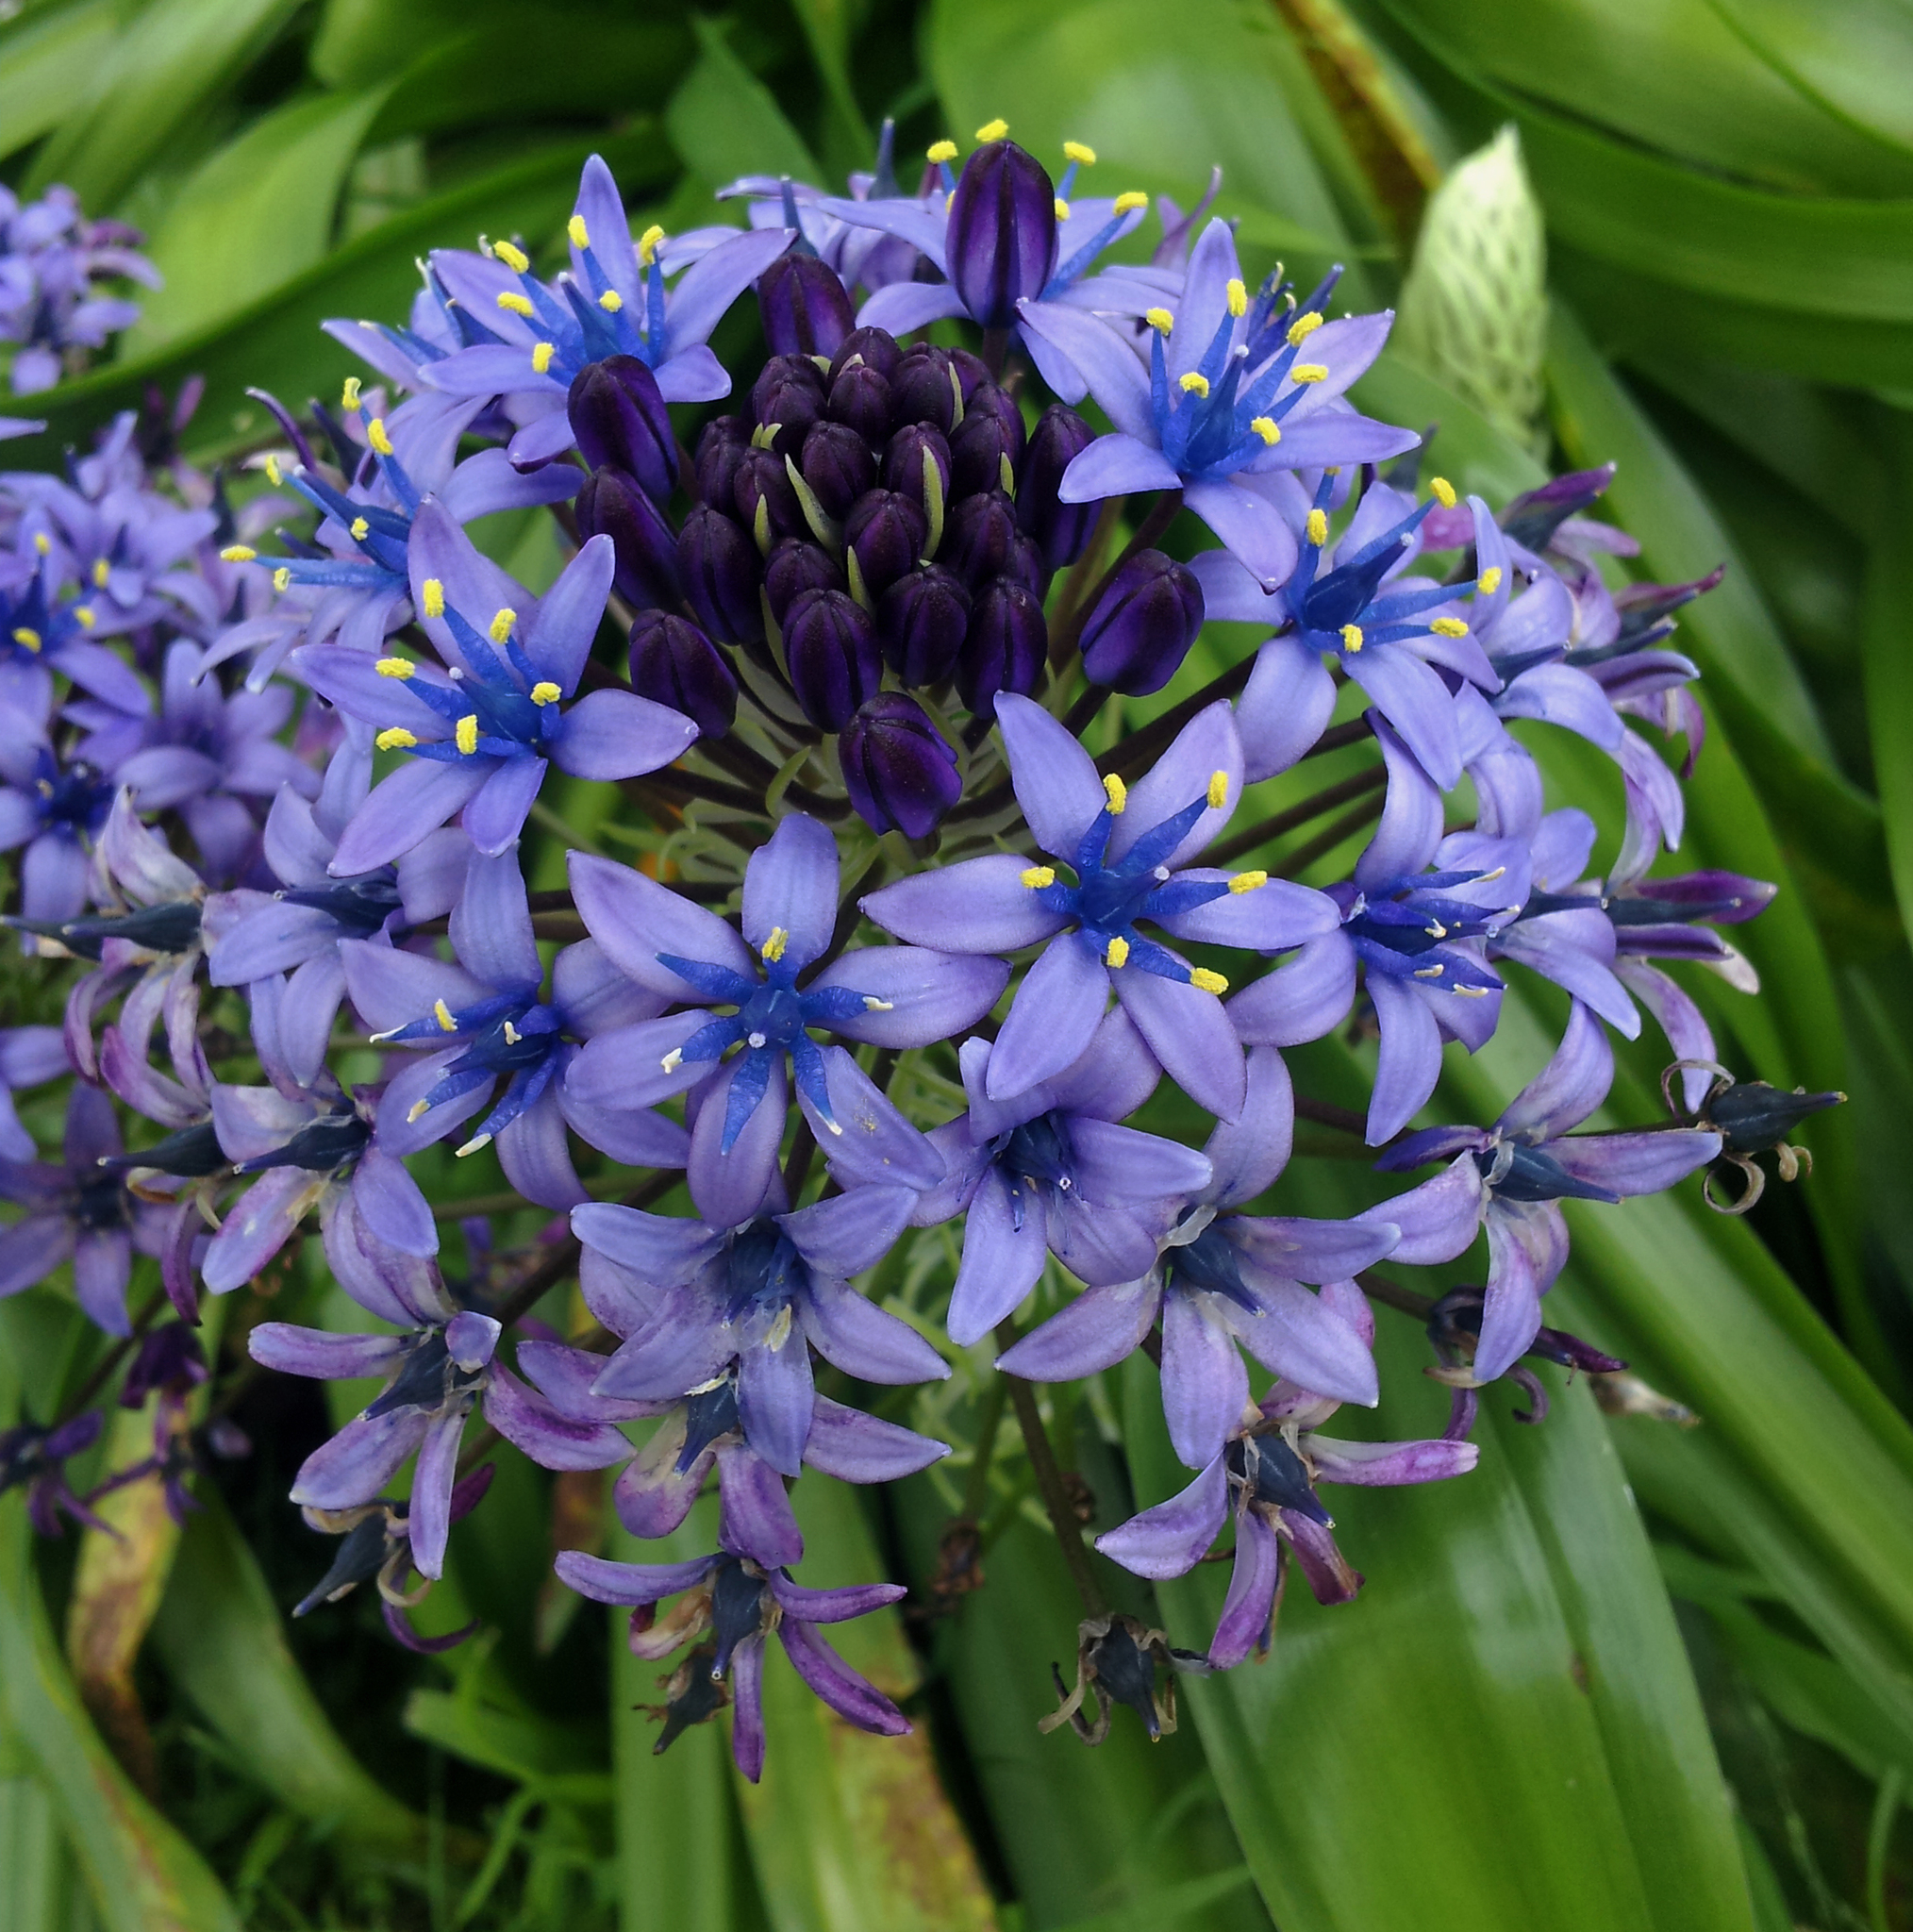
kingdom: Plantae
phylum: Tracheophyta
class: Liliopsida
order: Asparagales
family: Asparagaceae
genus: Scilla
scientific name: Scilla peruviana
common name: Portuguese squill
